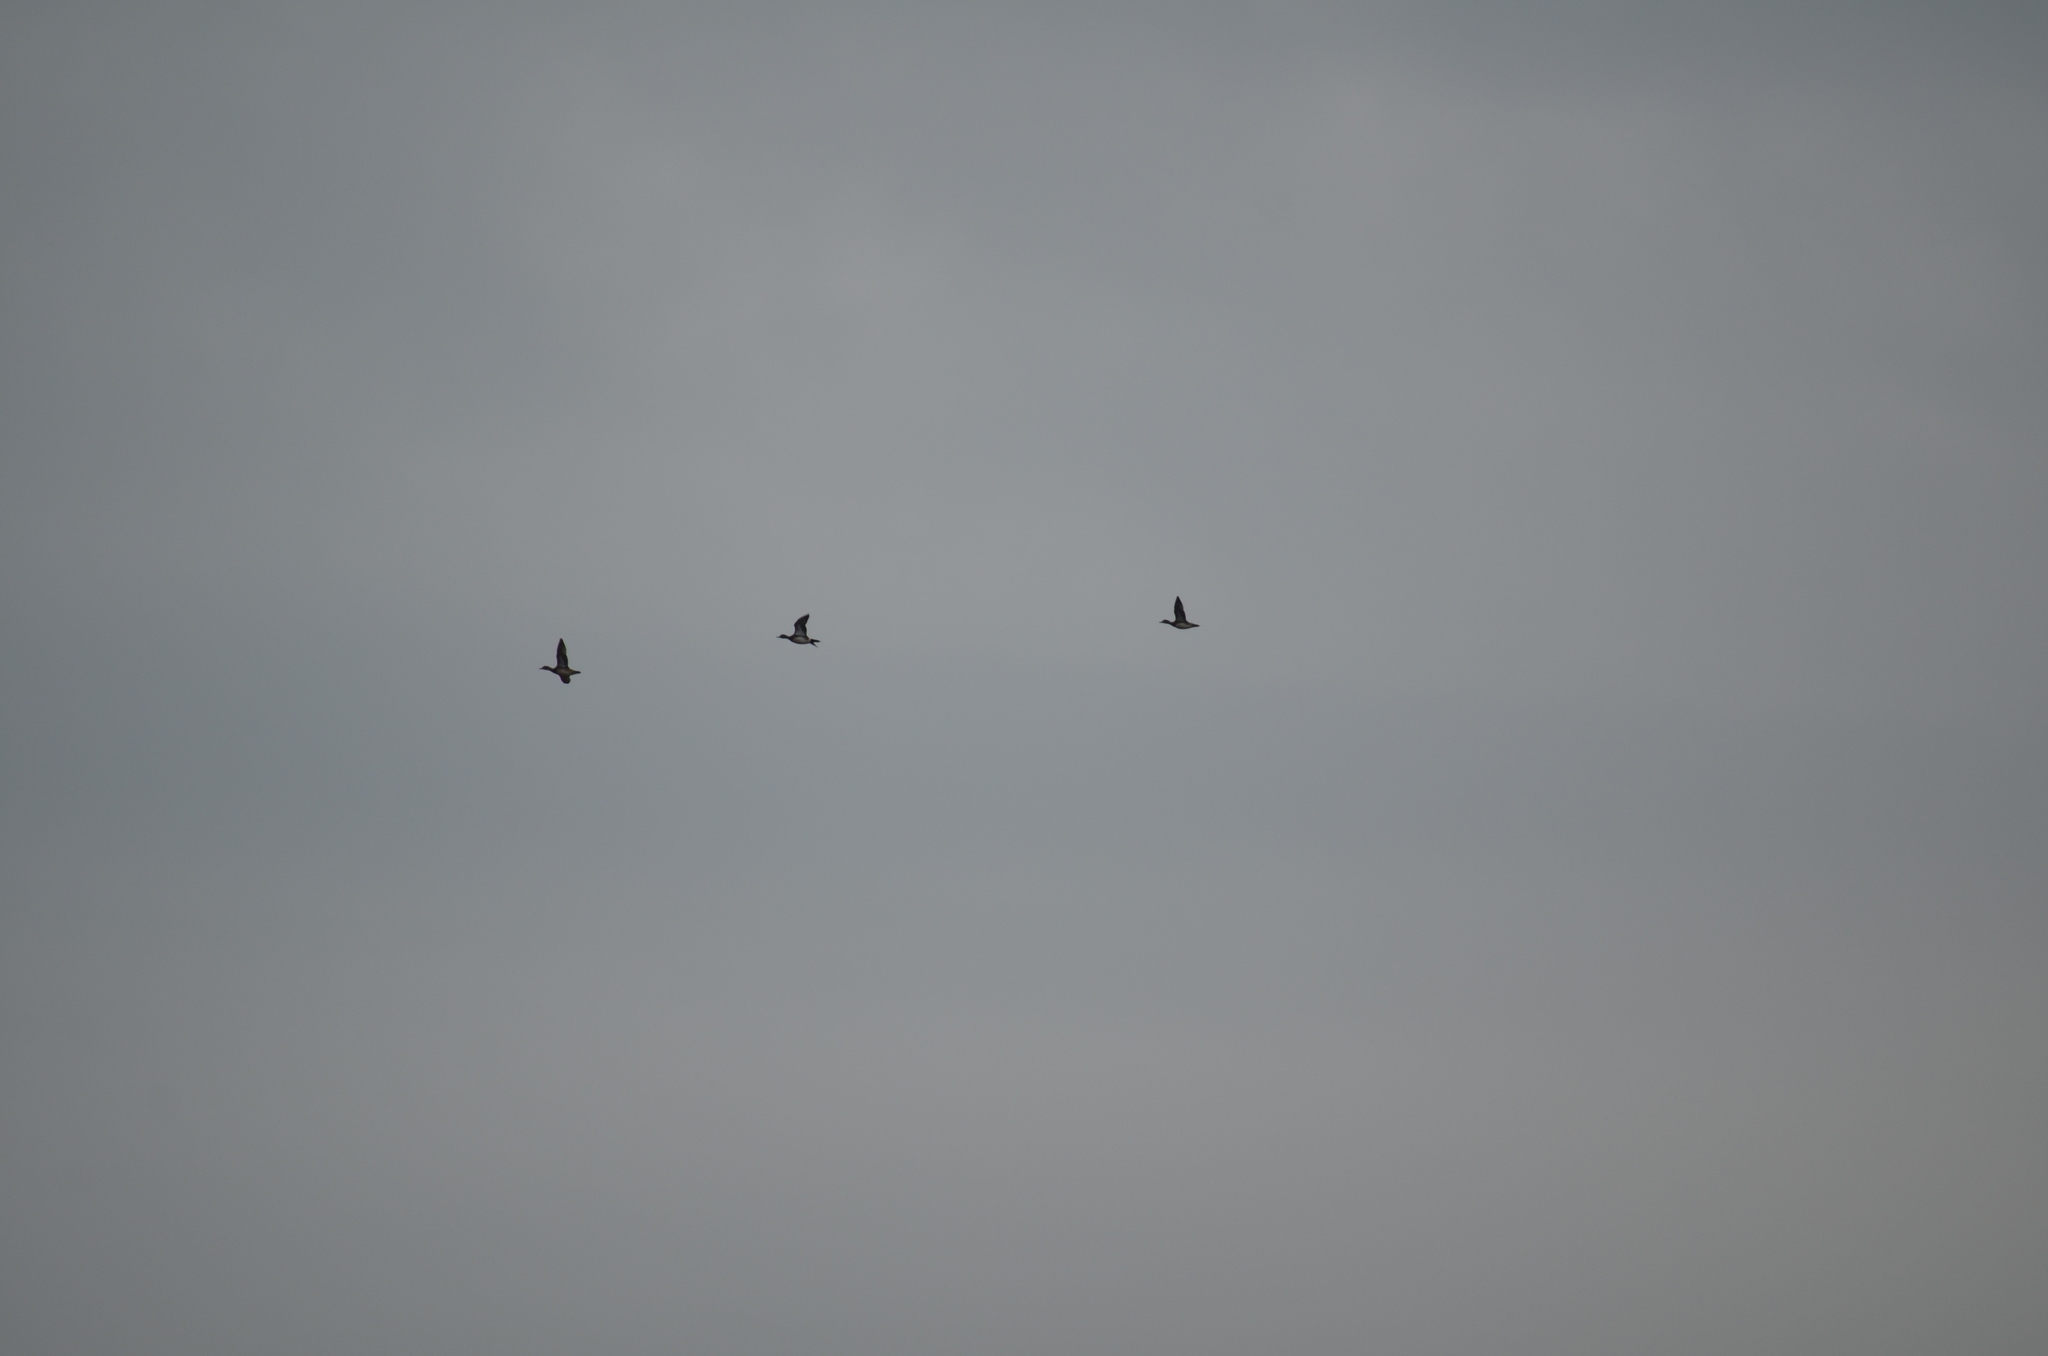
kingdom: Animalia
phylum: Chordata
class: Aves
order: Anseriformes
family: Anatidae
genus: Mareca
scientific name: Mareca americana
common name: American wigeon
